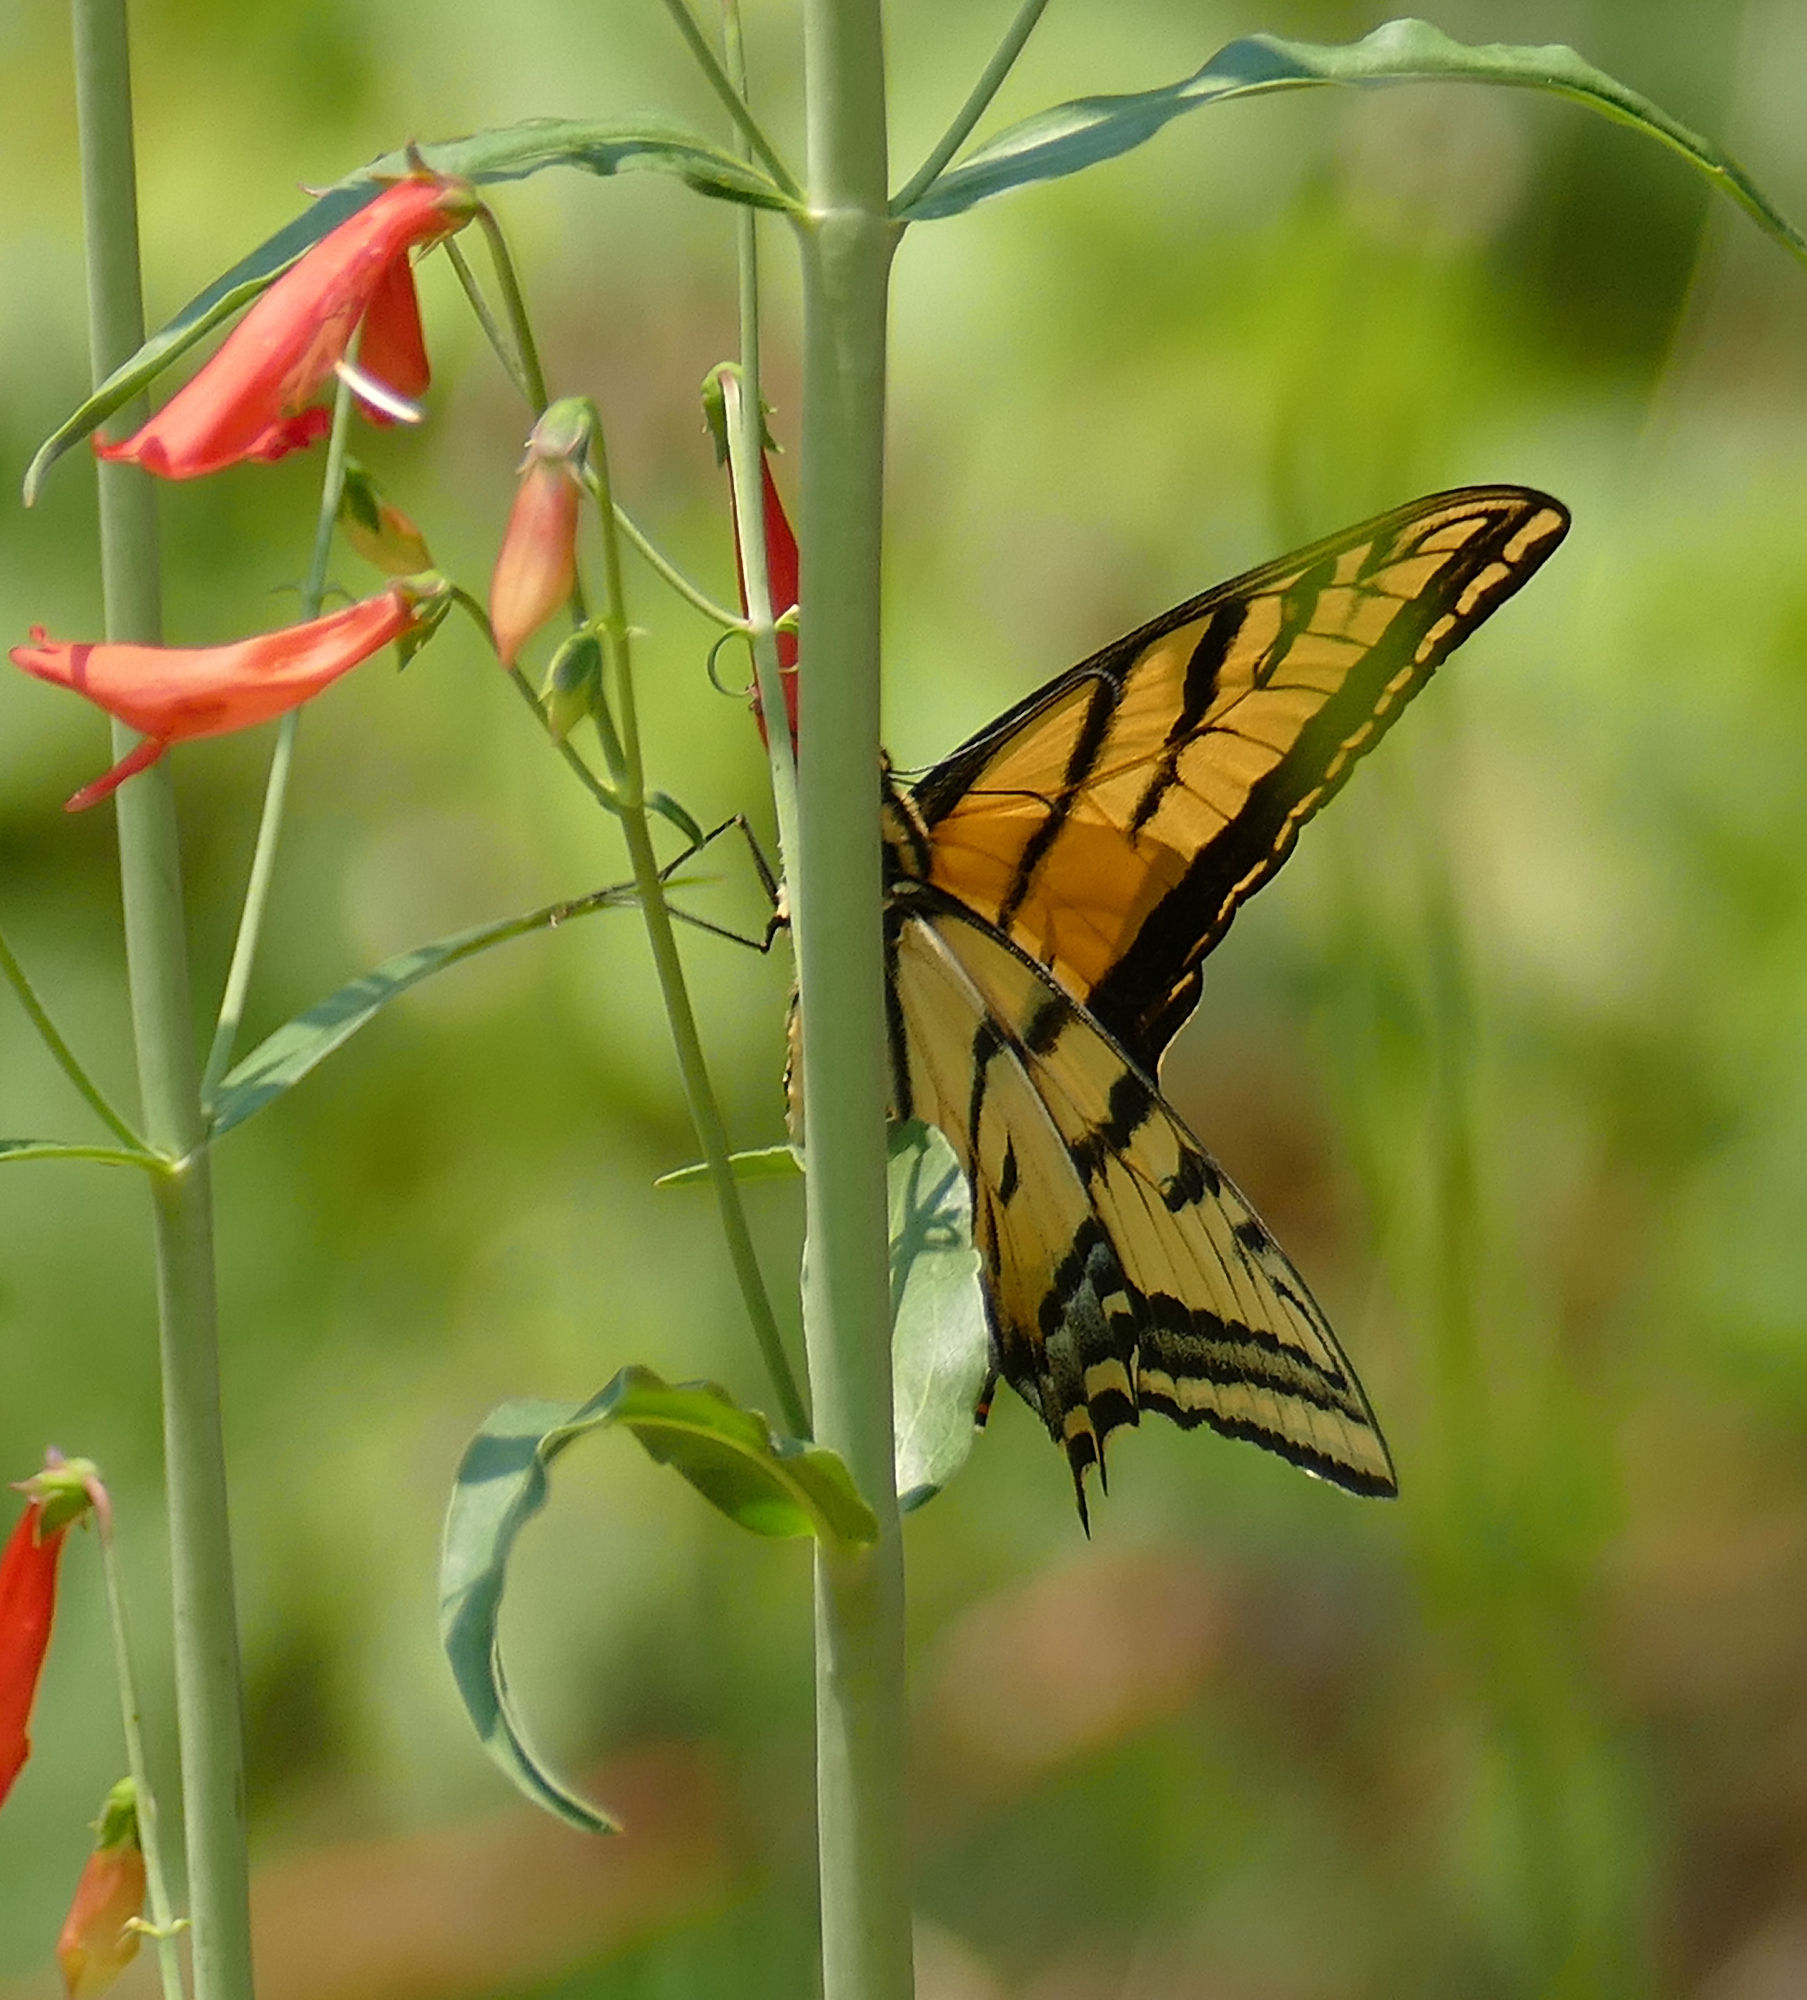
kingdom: Animalia
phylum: Arthropoda
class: Insecta
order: Lepidoptera
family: Papilionidae
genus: Papilio
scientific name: Papilio multicaudata
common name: Two-tailed tiger swallowtail
